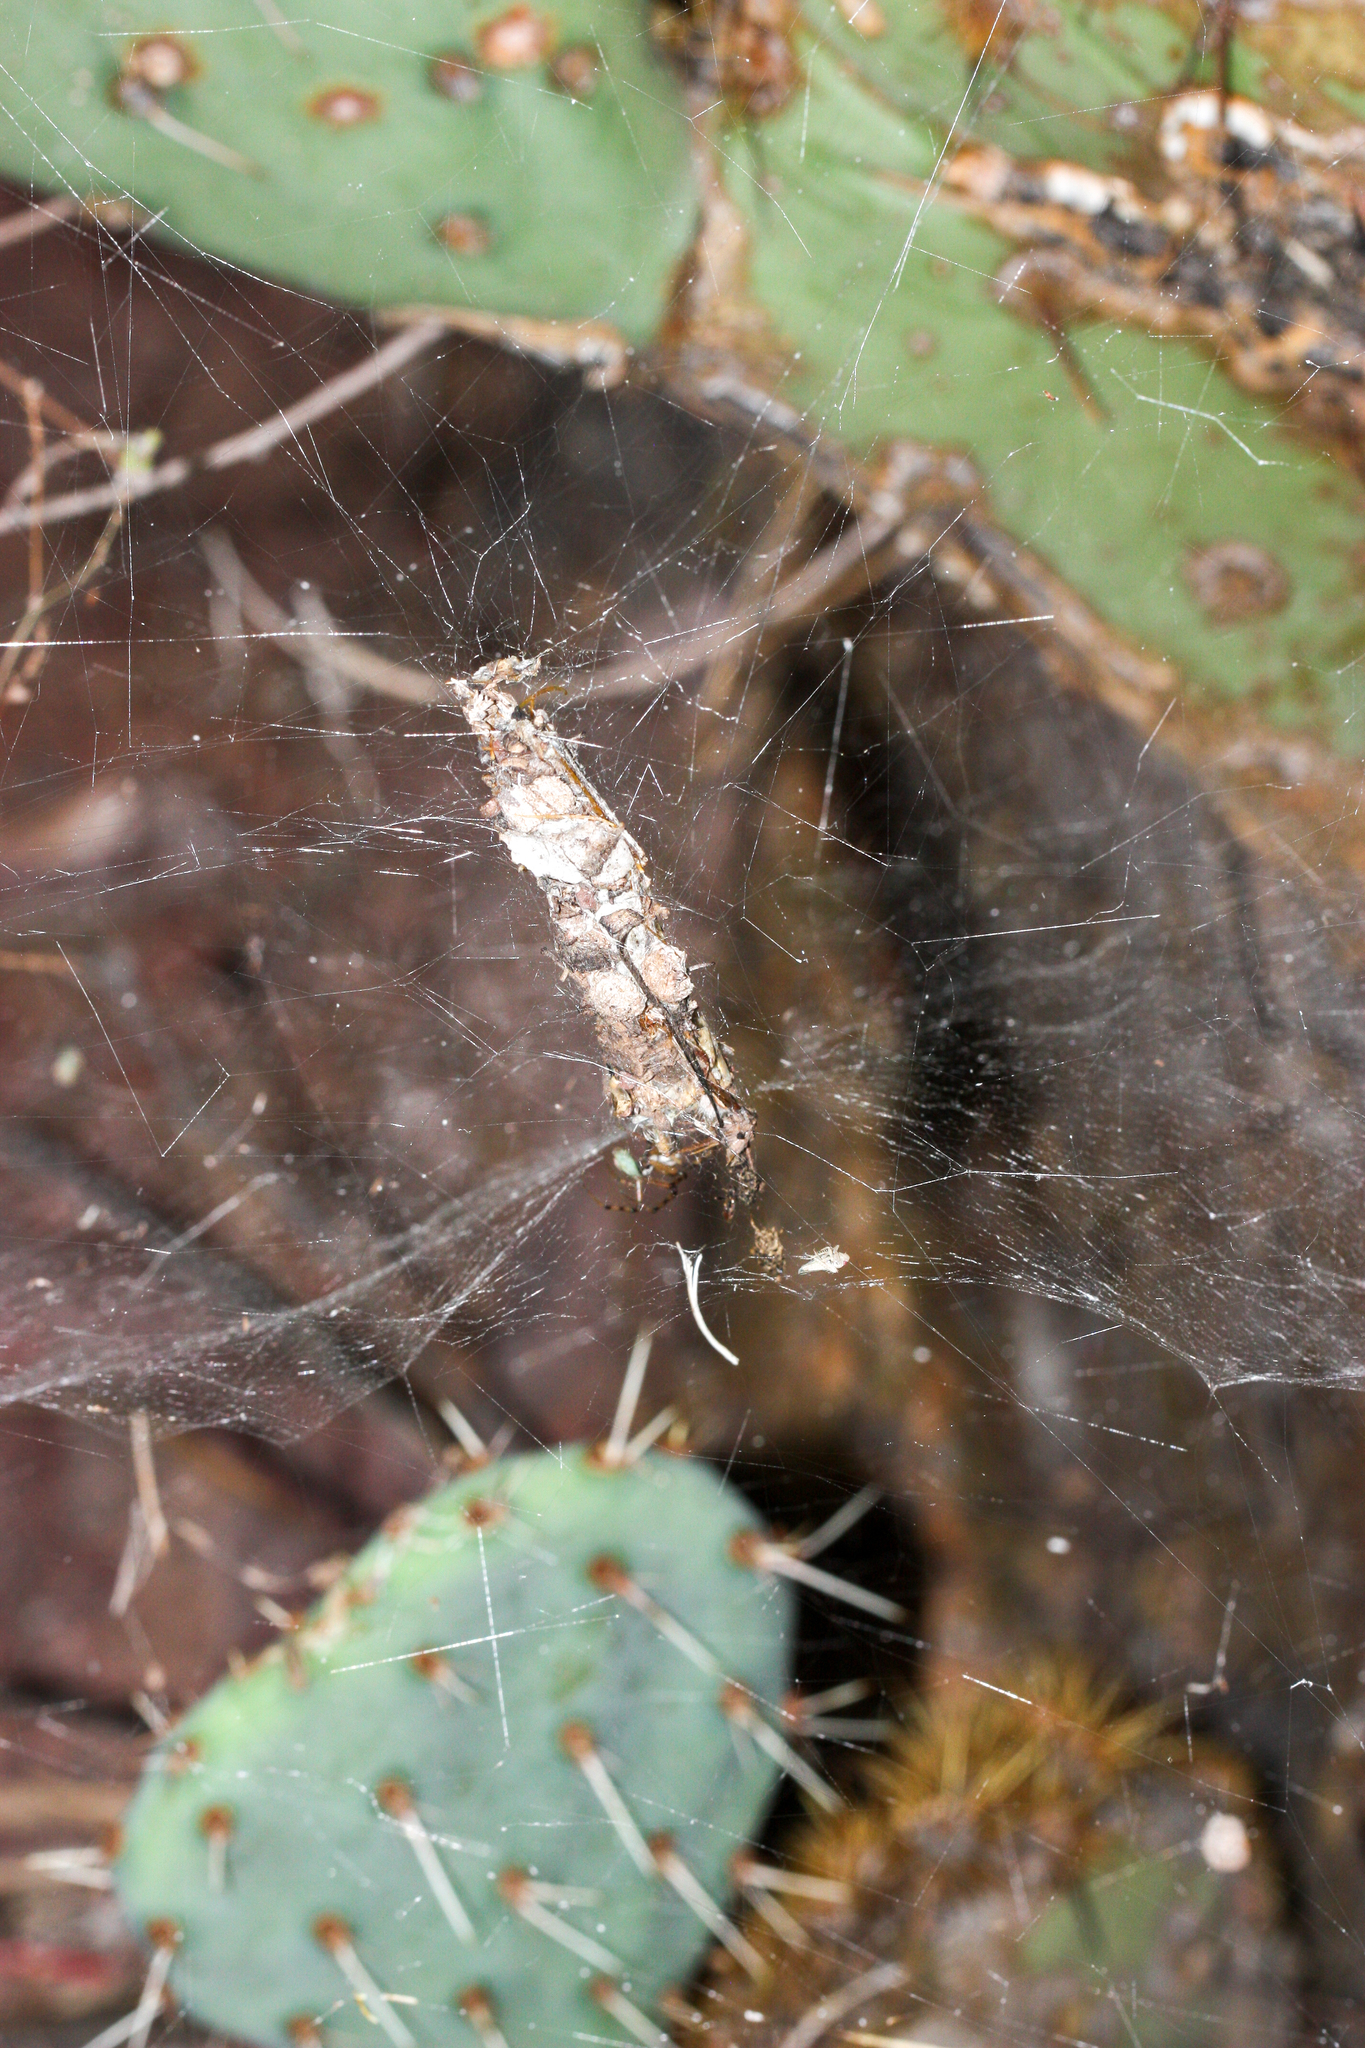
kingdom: Animalia
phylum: Arthropoda
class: Arachnida
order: Araneae
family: Diguetidae
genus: Diguetia
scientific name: Diguetia
